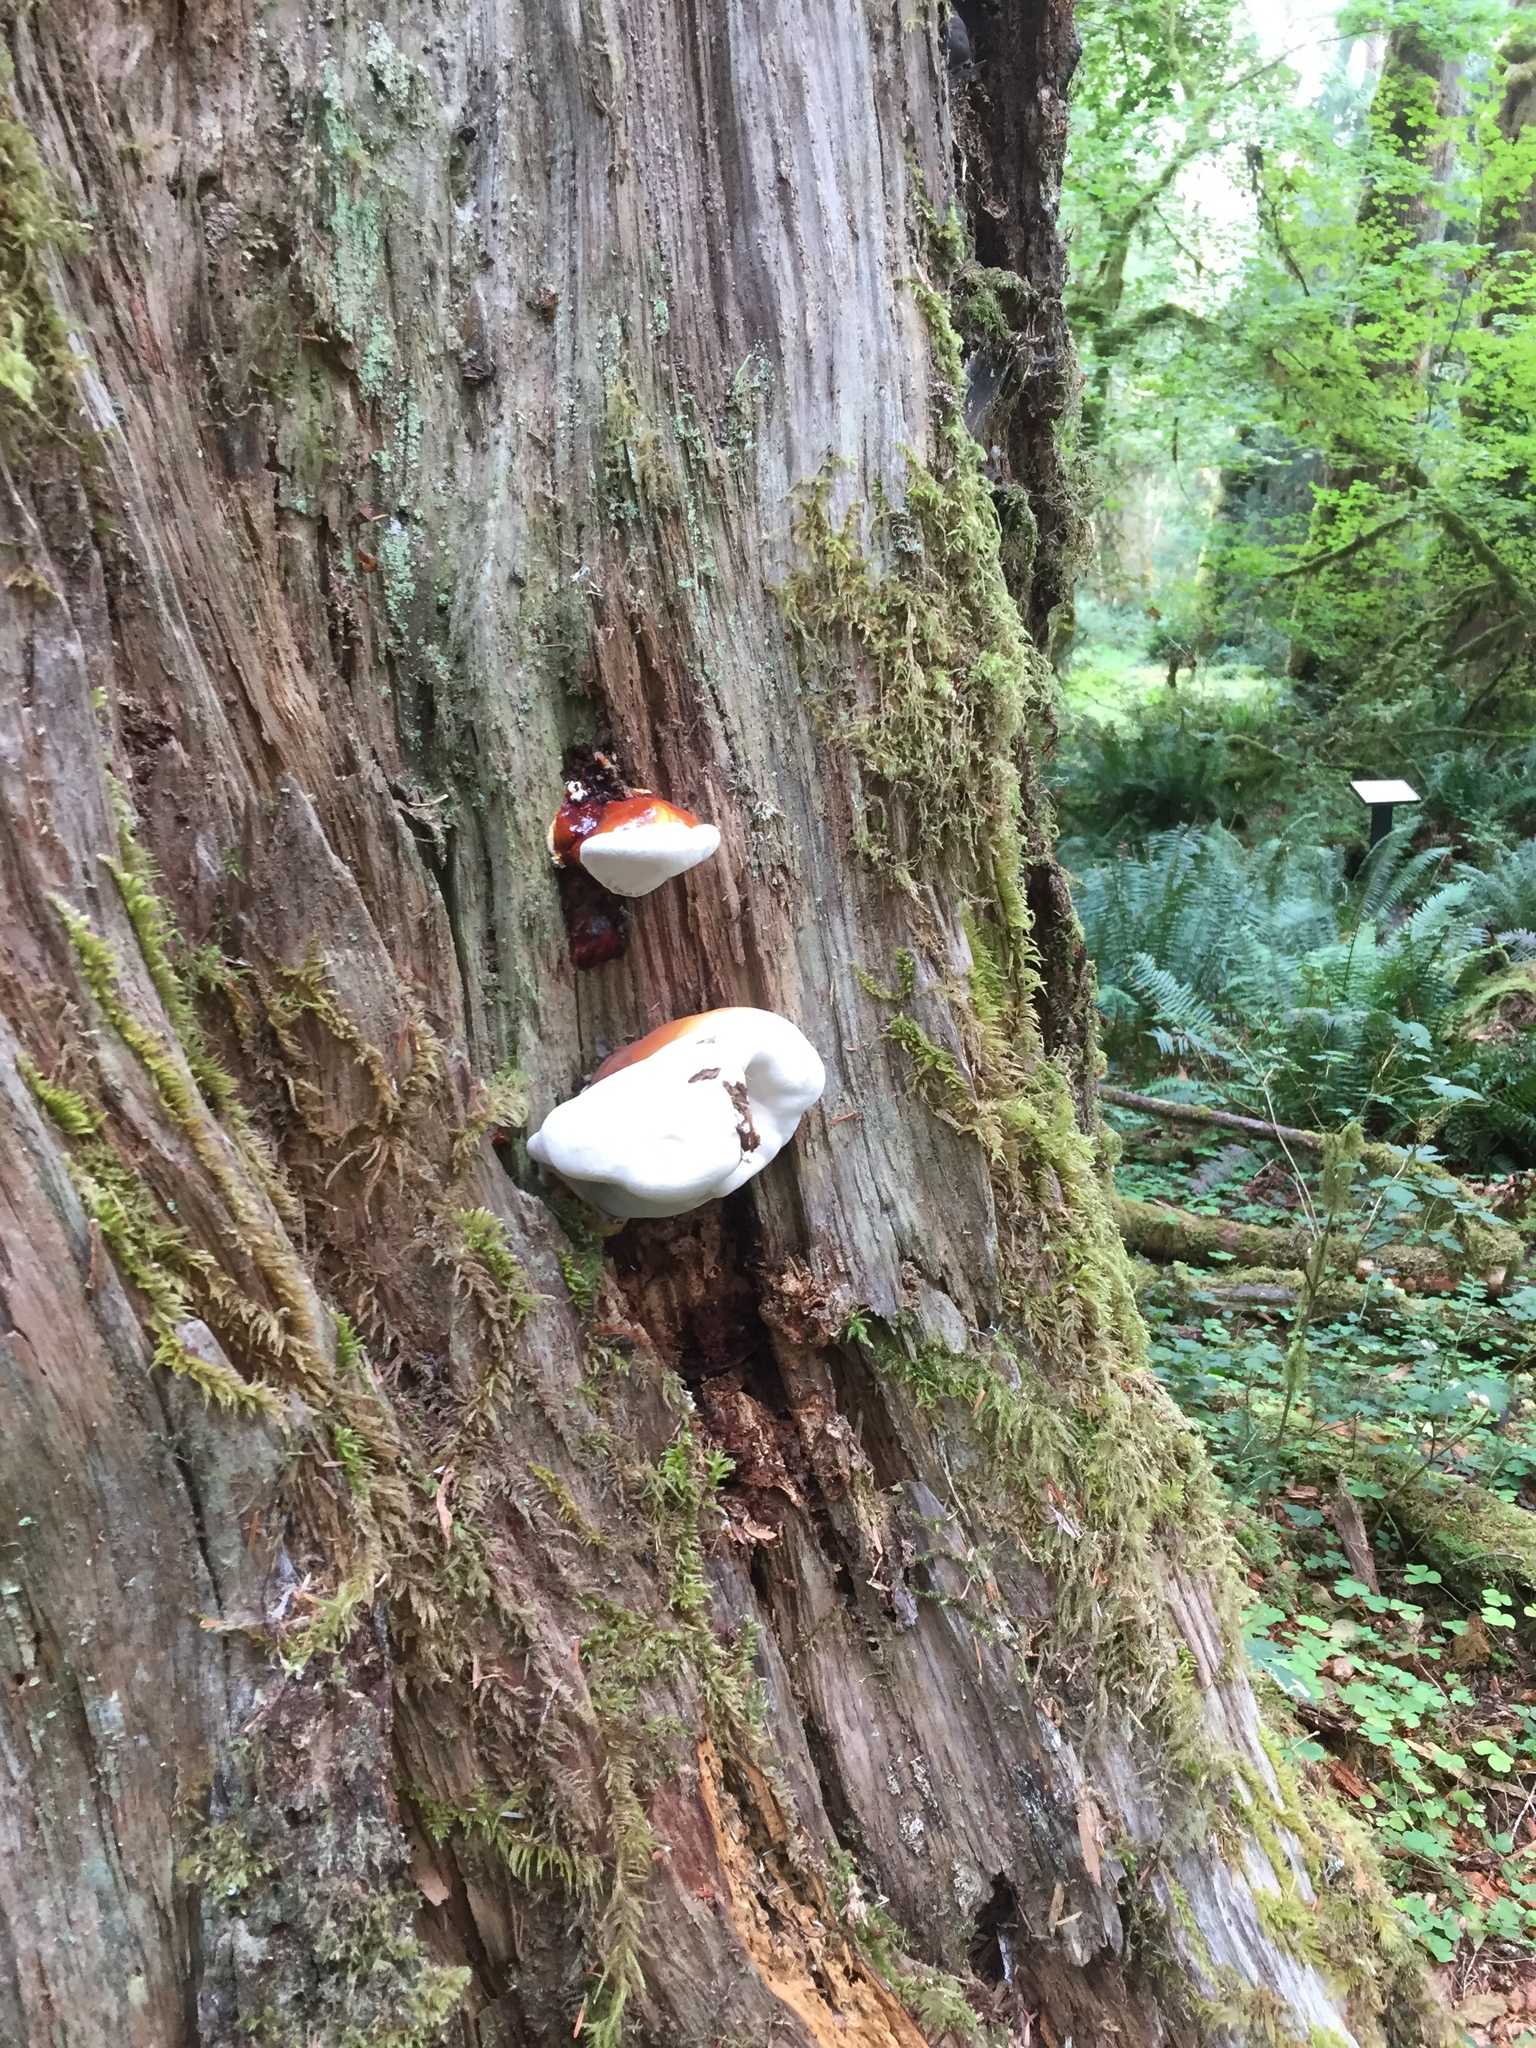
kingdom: Fungi
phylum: Basidiomycota
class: Agaricomycetes
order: Polyporales
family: Polyporaceae
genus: Ganoderma
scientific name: Ganoderma oregonense
